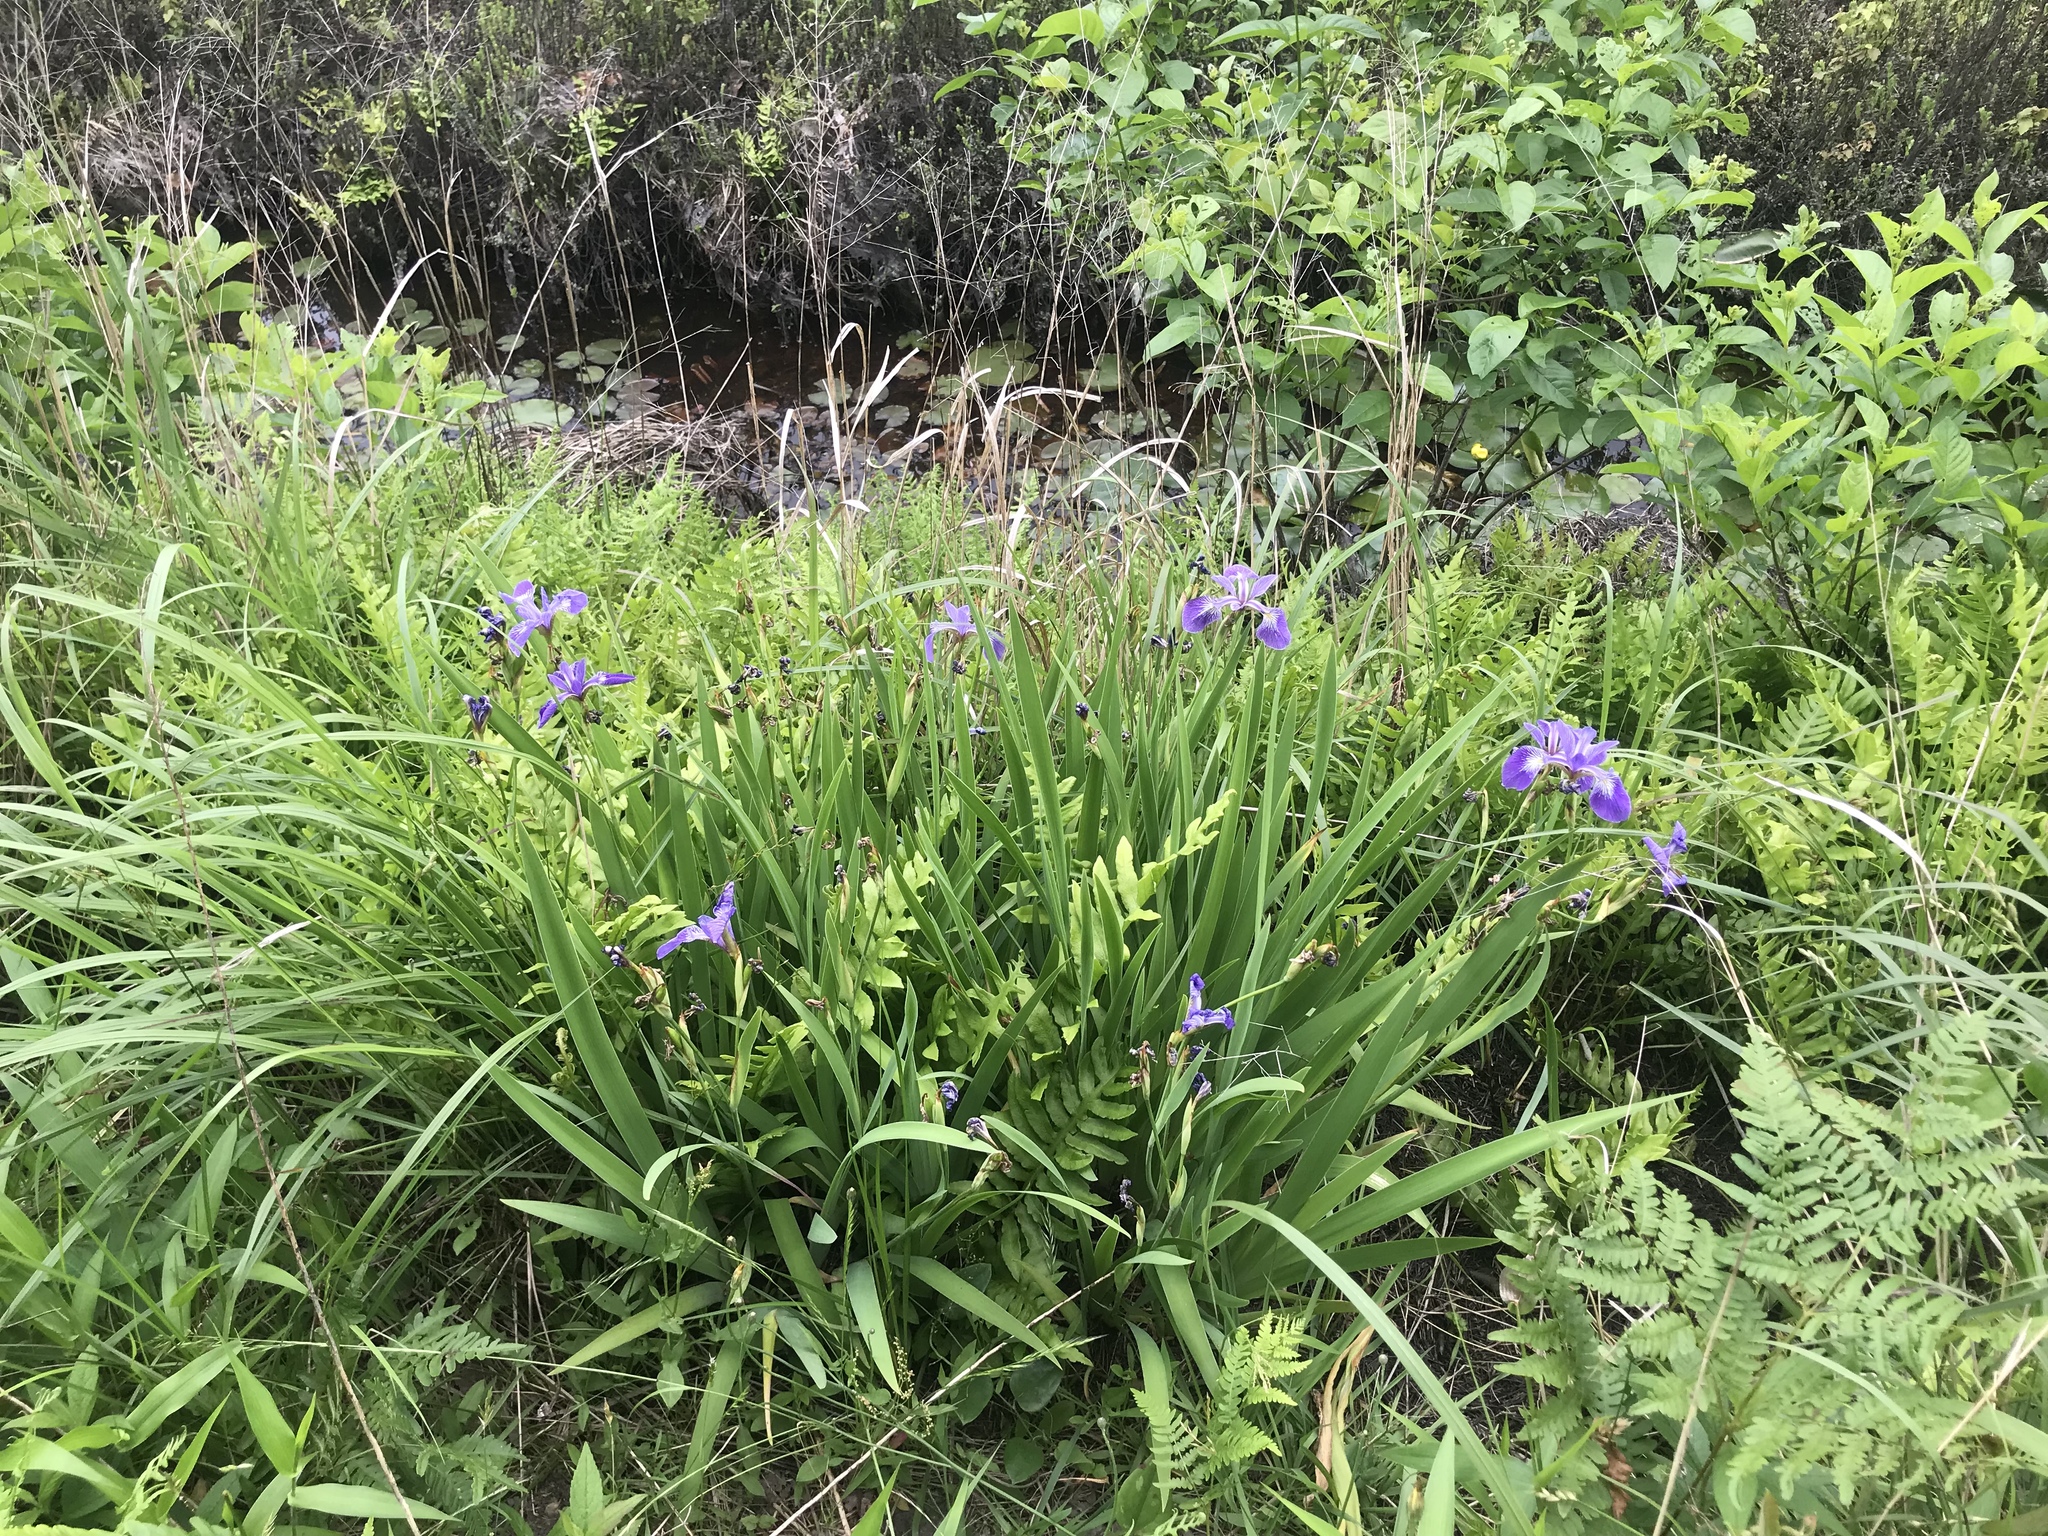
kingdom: Plantae
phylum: Tracheophyta
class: Liliopsida
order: Asparagales
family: Iridaceae
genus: Iris
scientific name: Iris versicolor
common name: Purple iris
